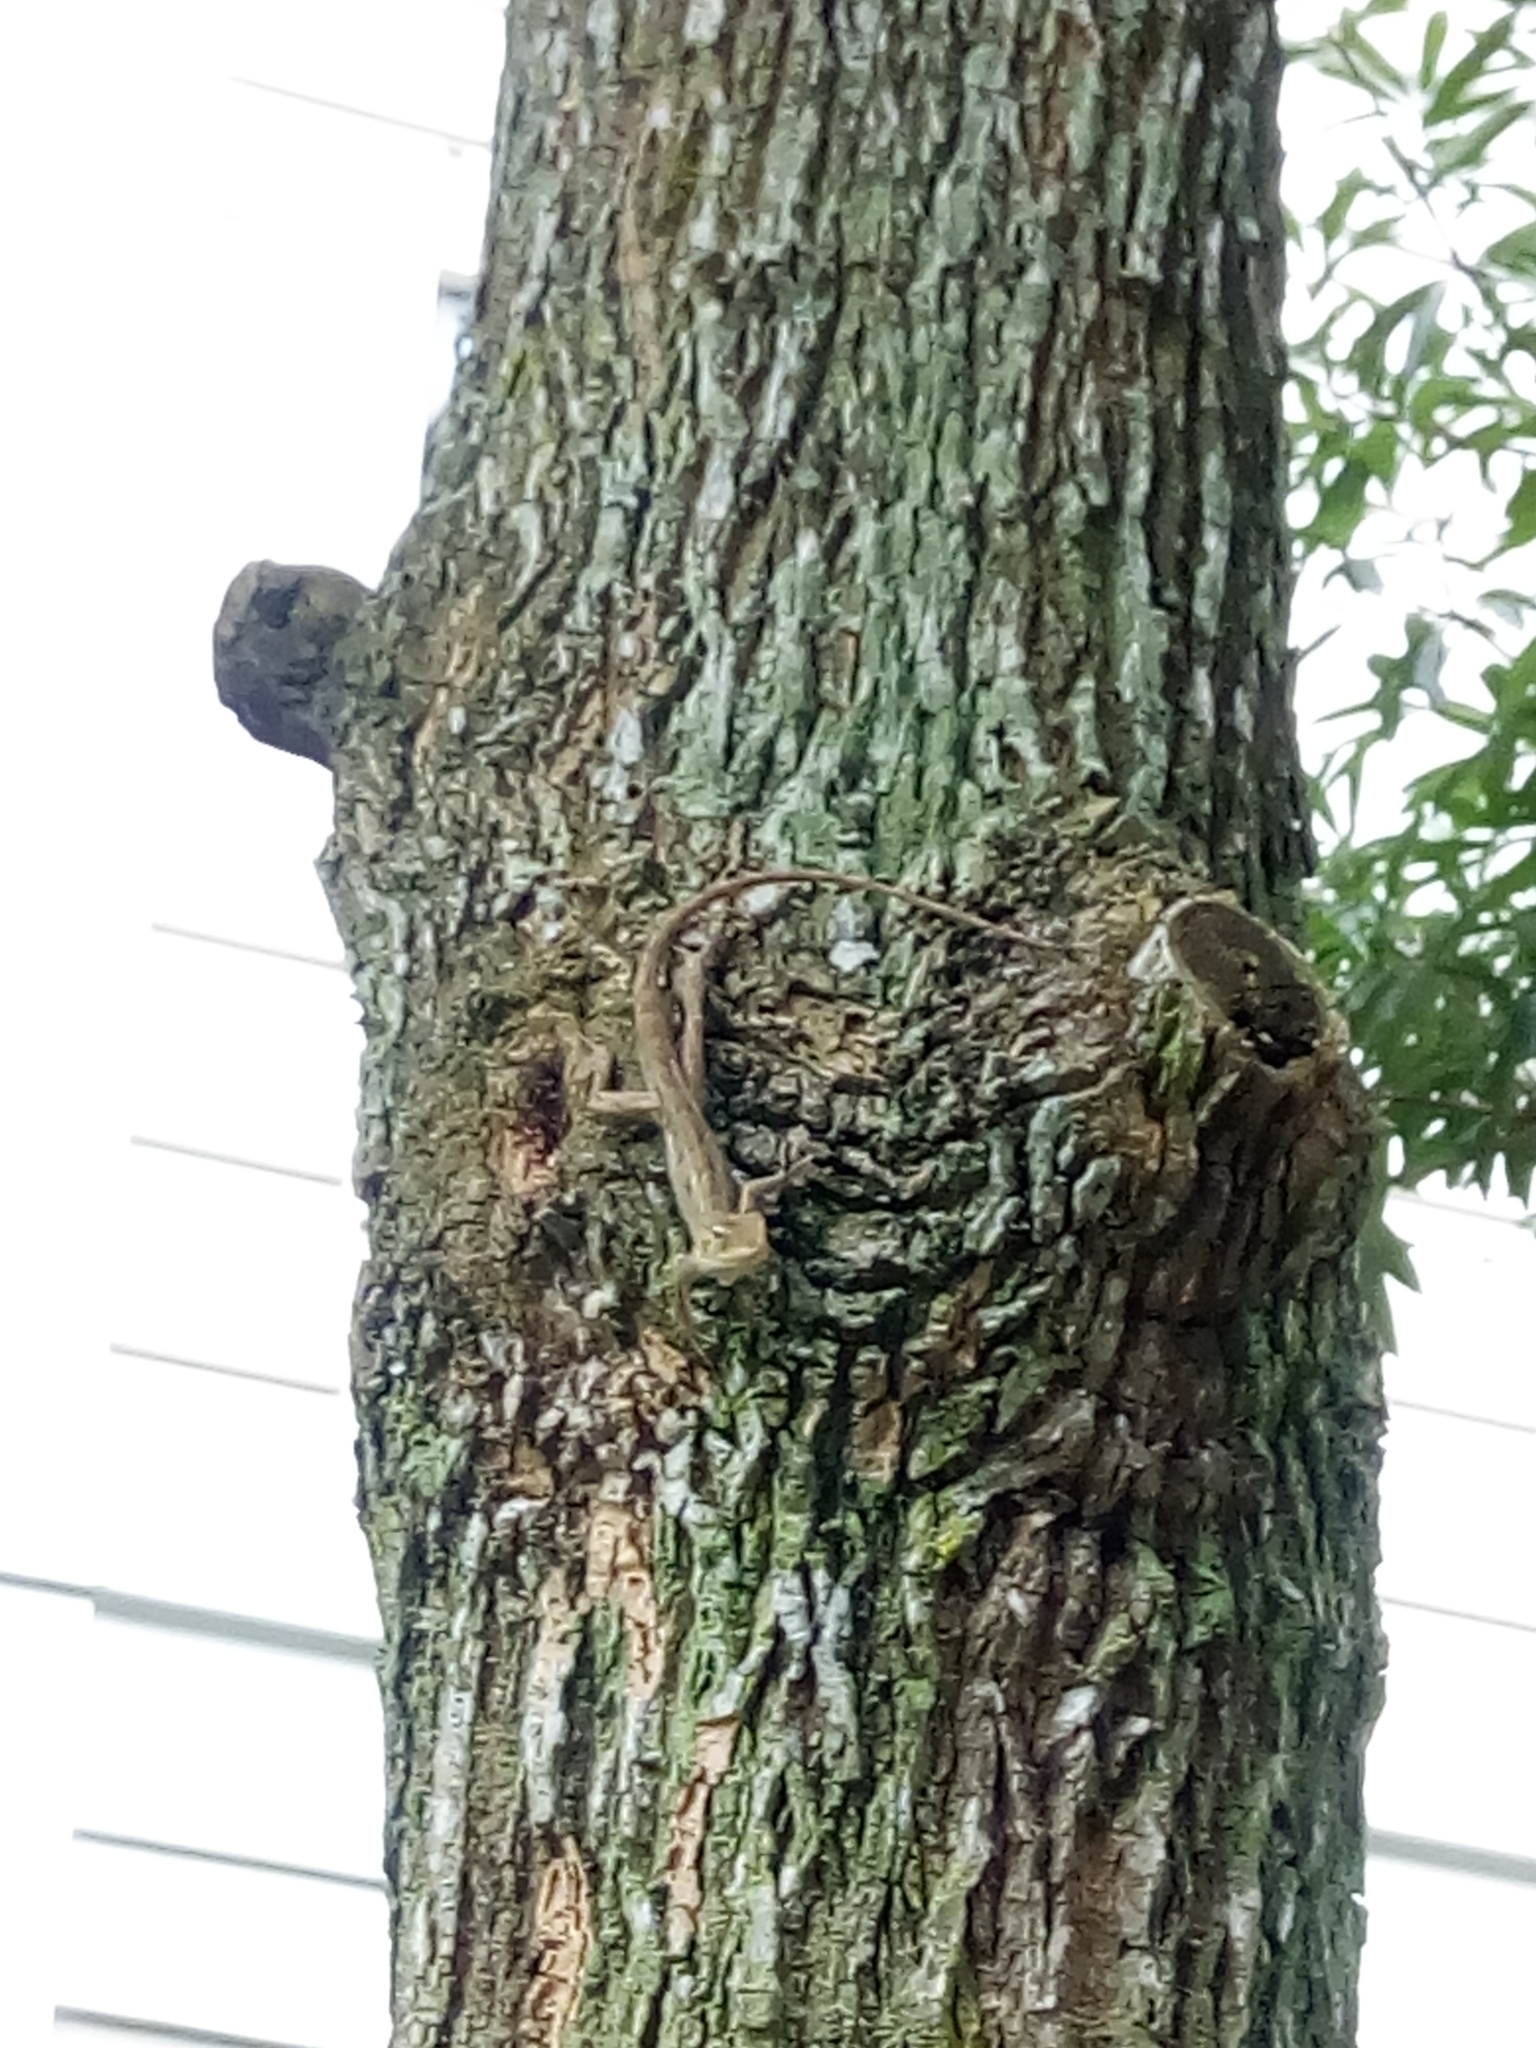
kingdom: Animalia
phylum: Chordata
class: Squamata
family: Agamidae
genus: Calotes
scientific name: Calotes versicolor
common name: Oriental garden lizard
